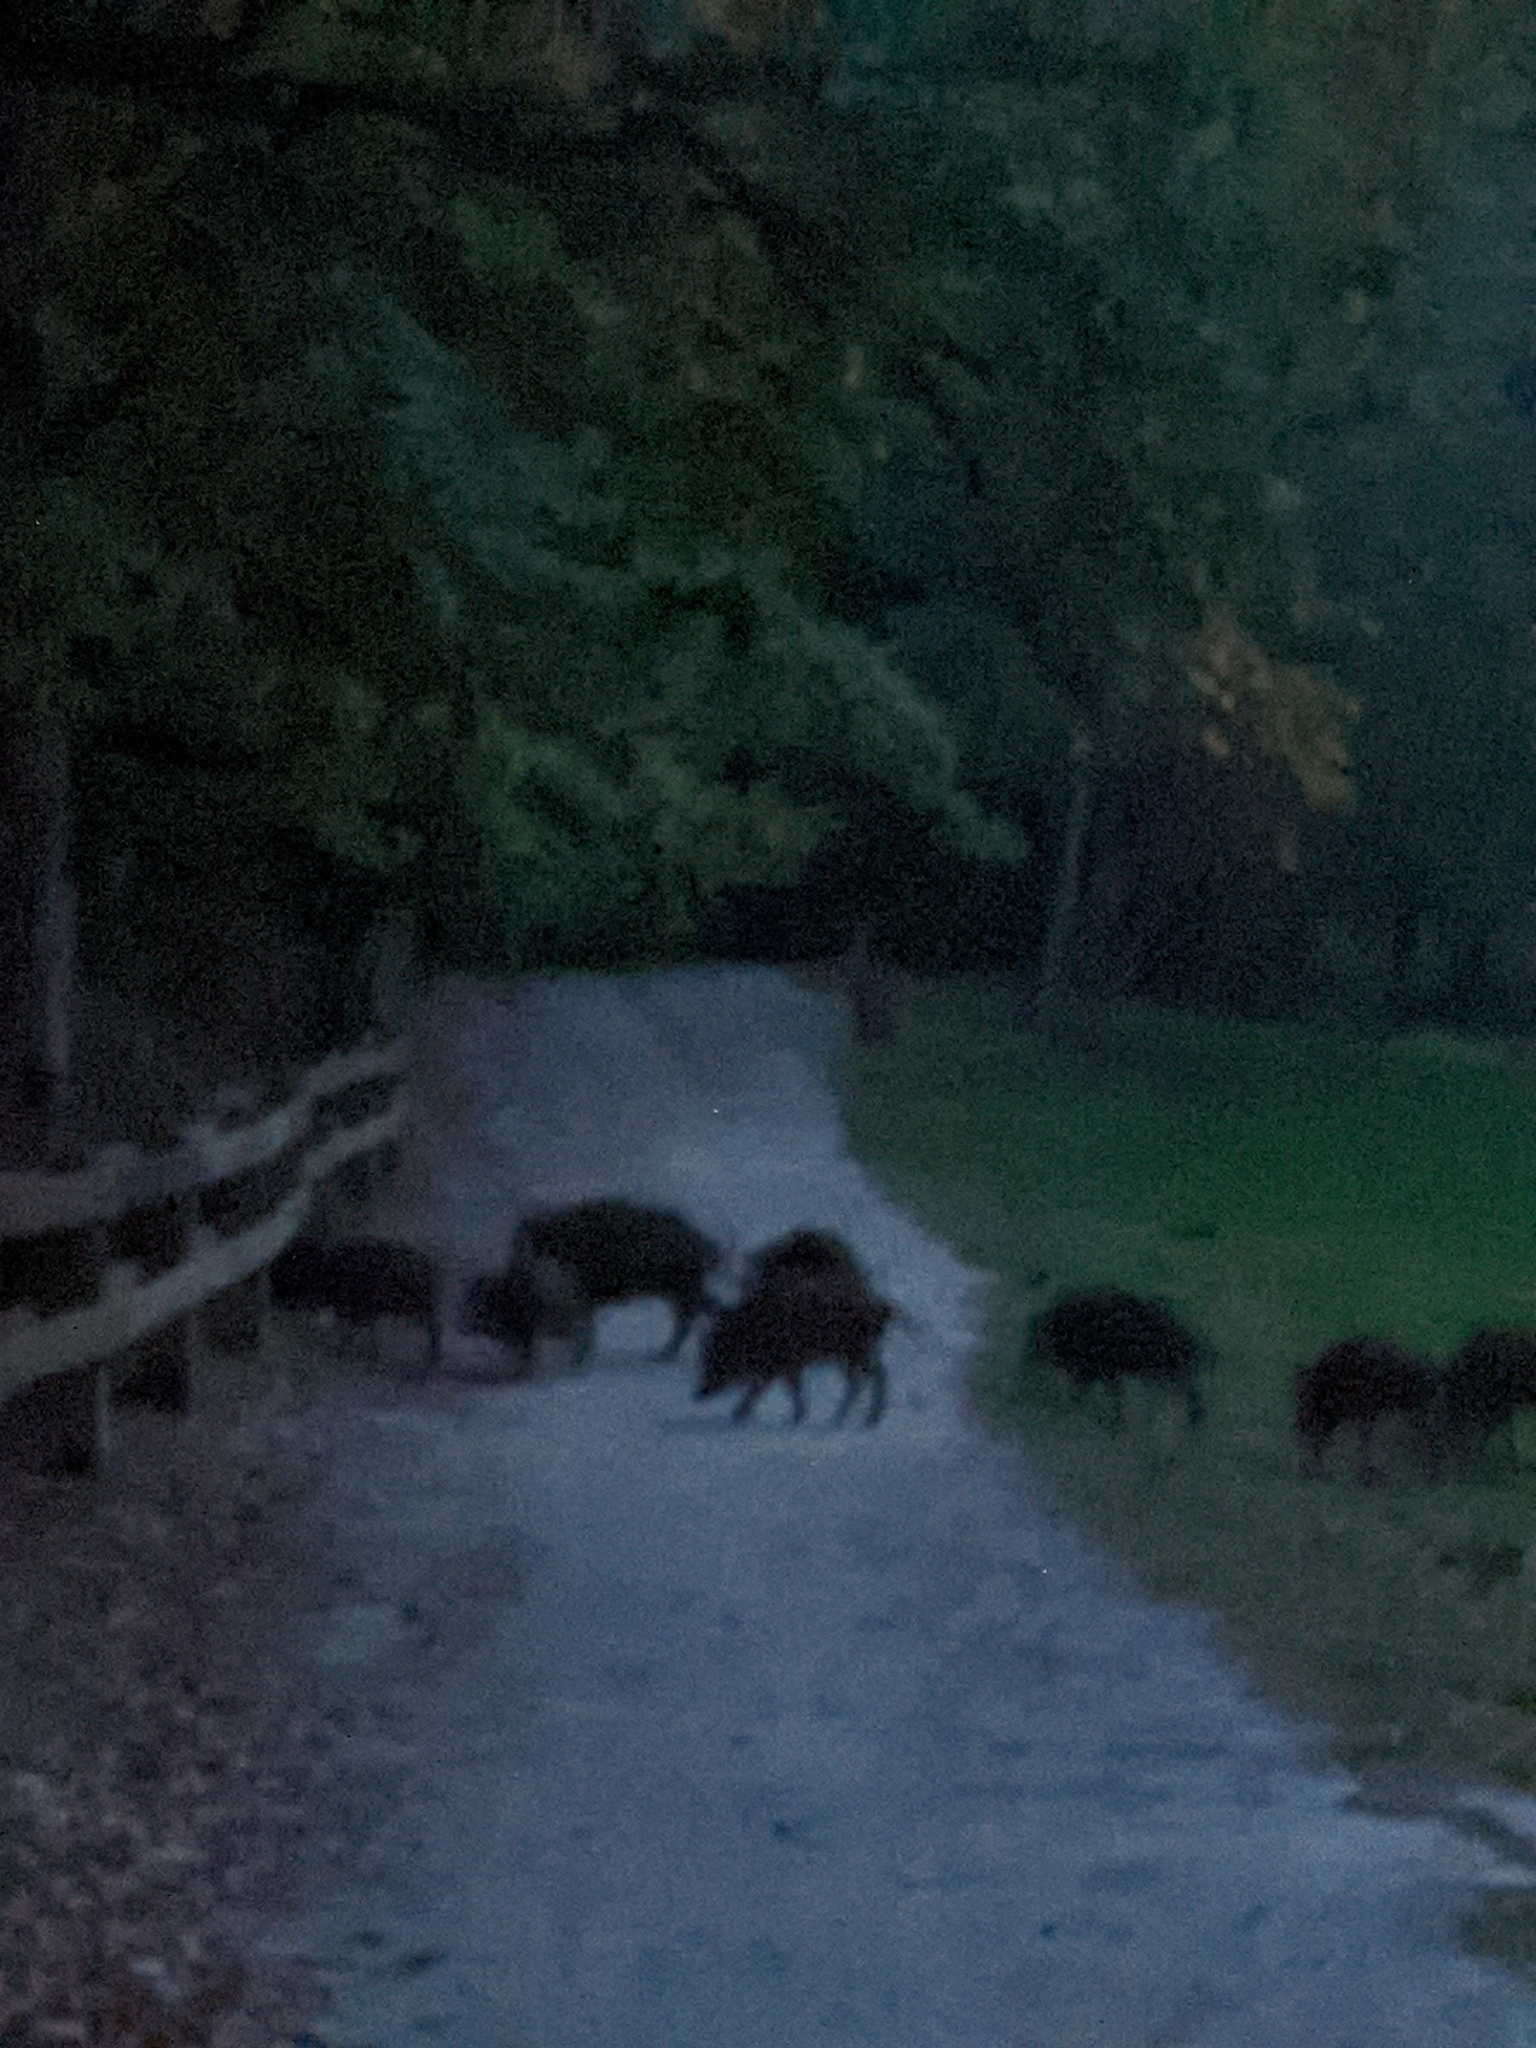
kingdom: Animalia
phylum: Chordata
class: Mammalia
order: Artiodactyla
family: Suidae
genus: Sus
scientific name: Sus scrofa
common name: Wild boar
